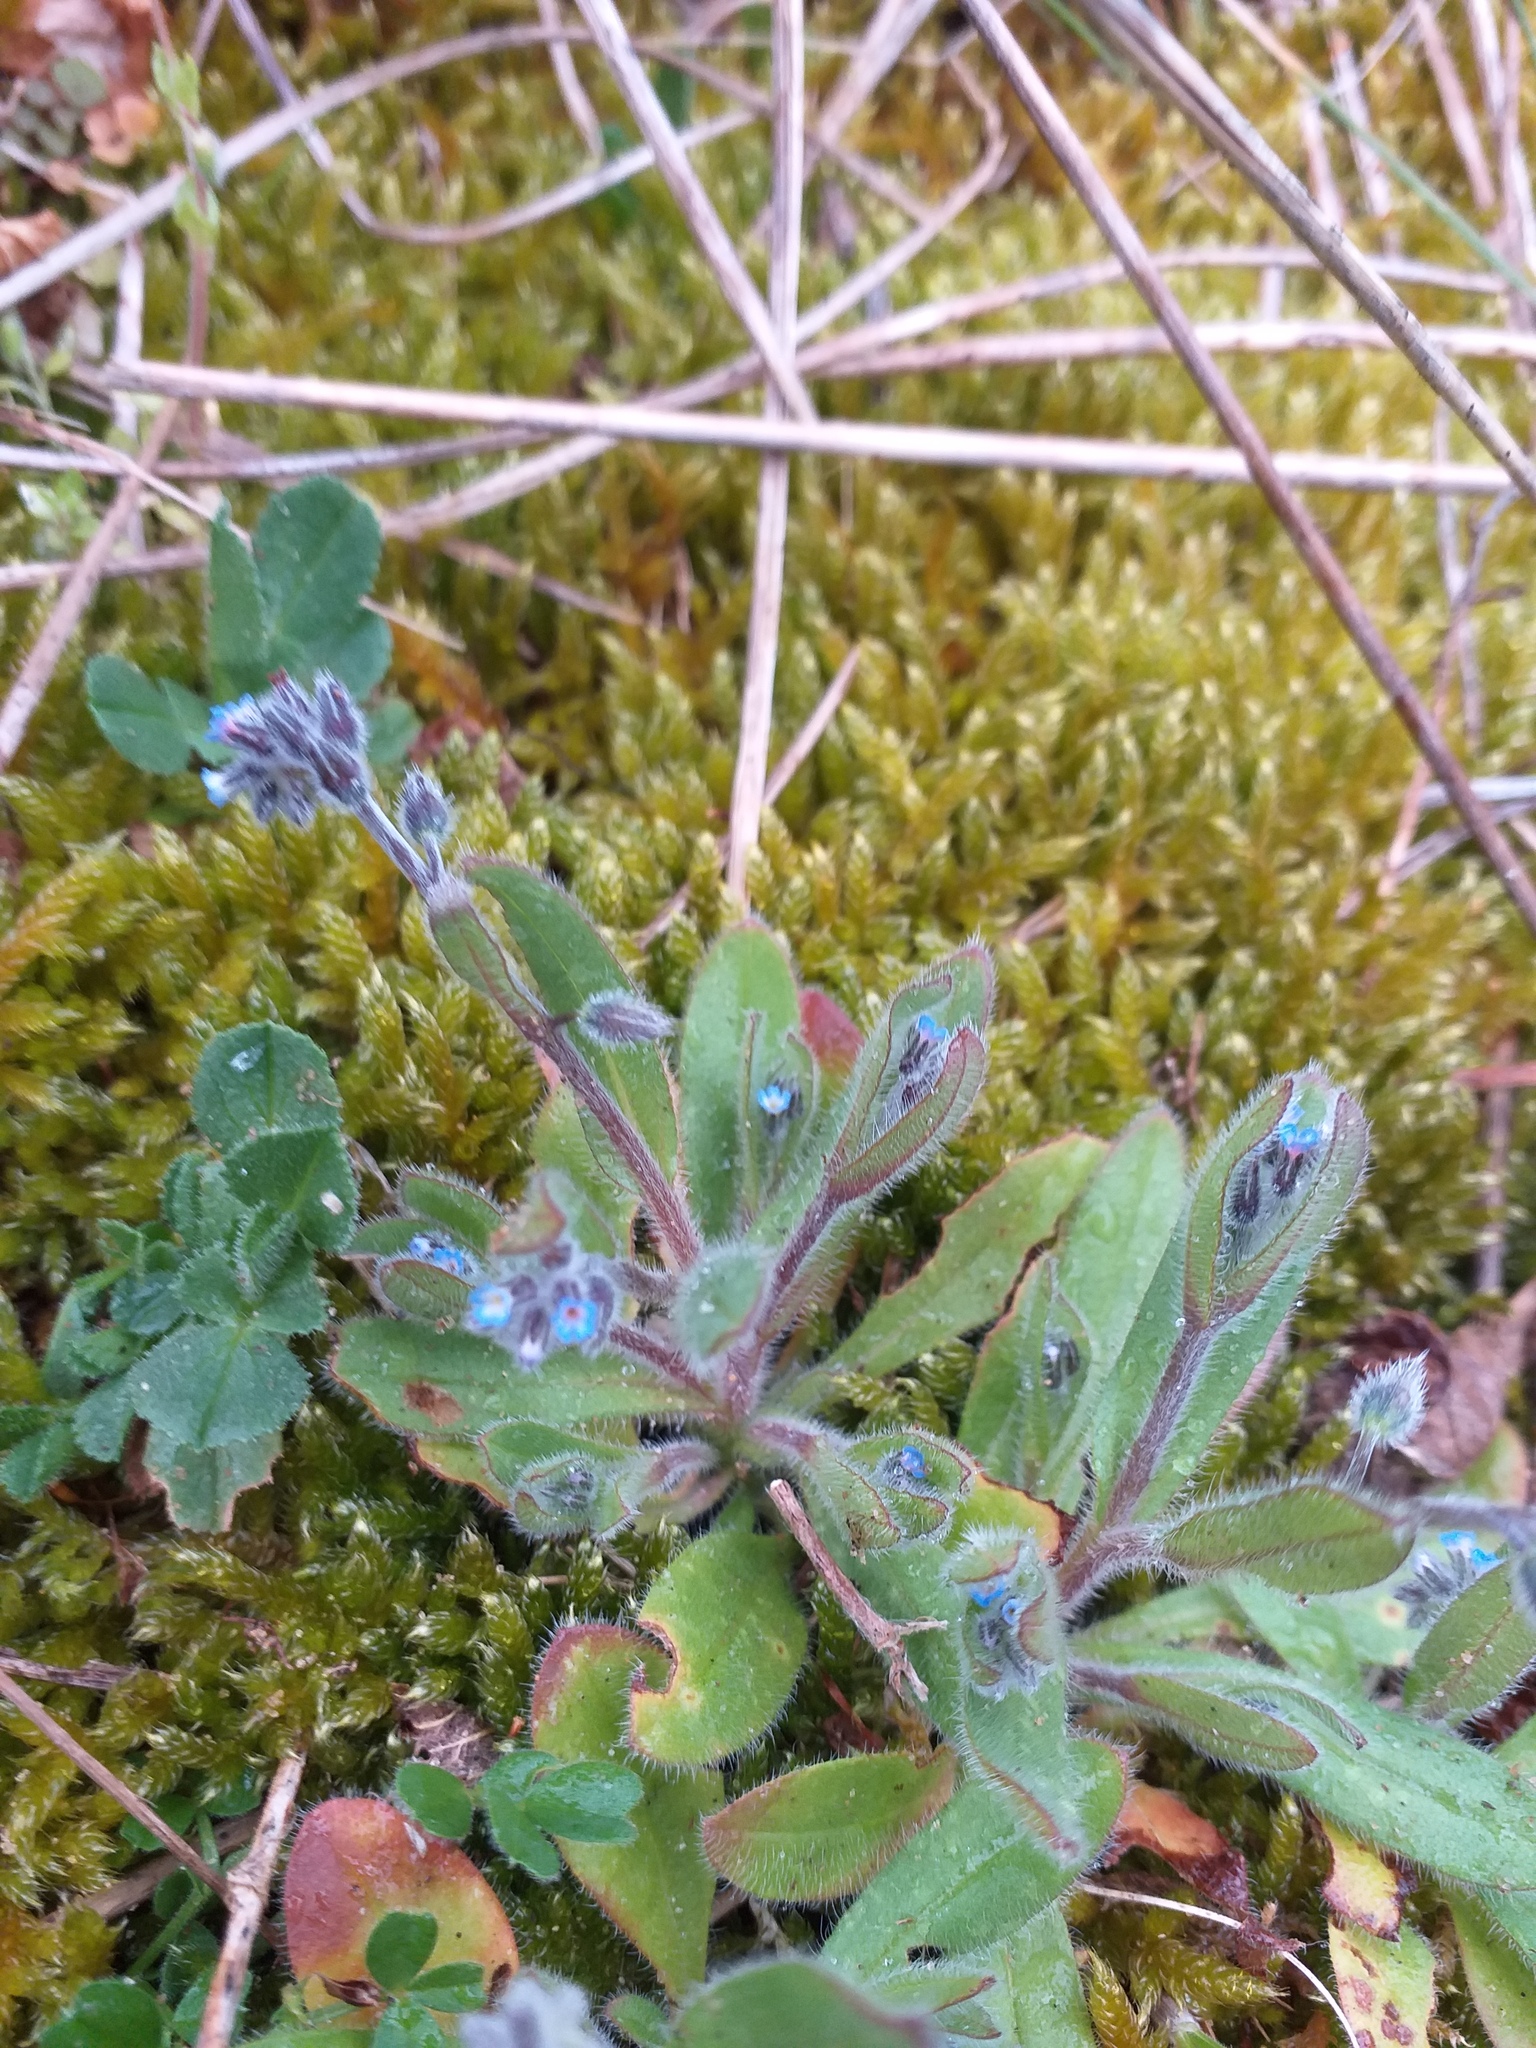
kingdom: Plantae
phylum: Tracheophyta
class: Magnoliopsida
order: Boraginales
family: Boraginaceae
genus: Myosotis
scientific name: Myosotis ramosissima
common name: Early forget-me-not
